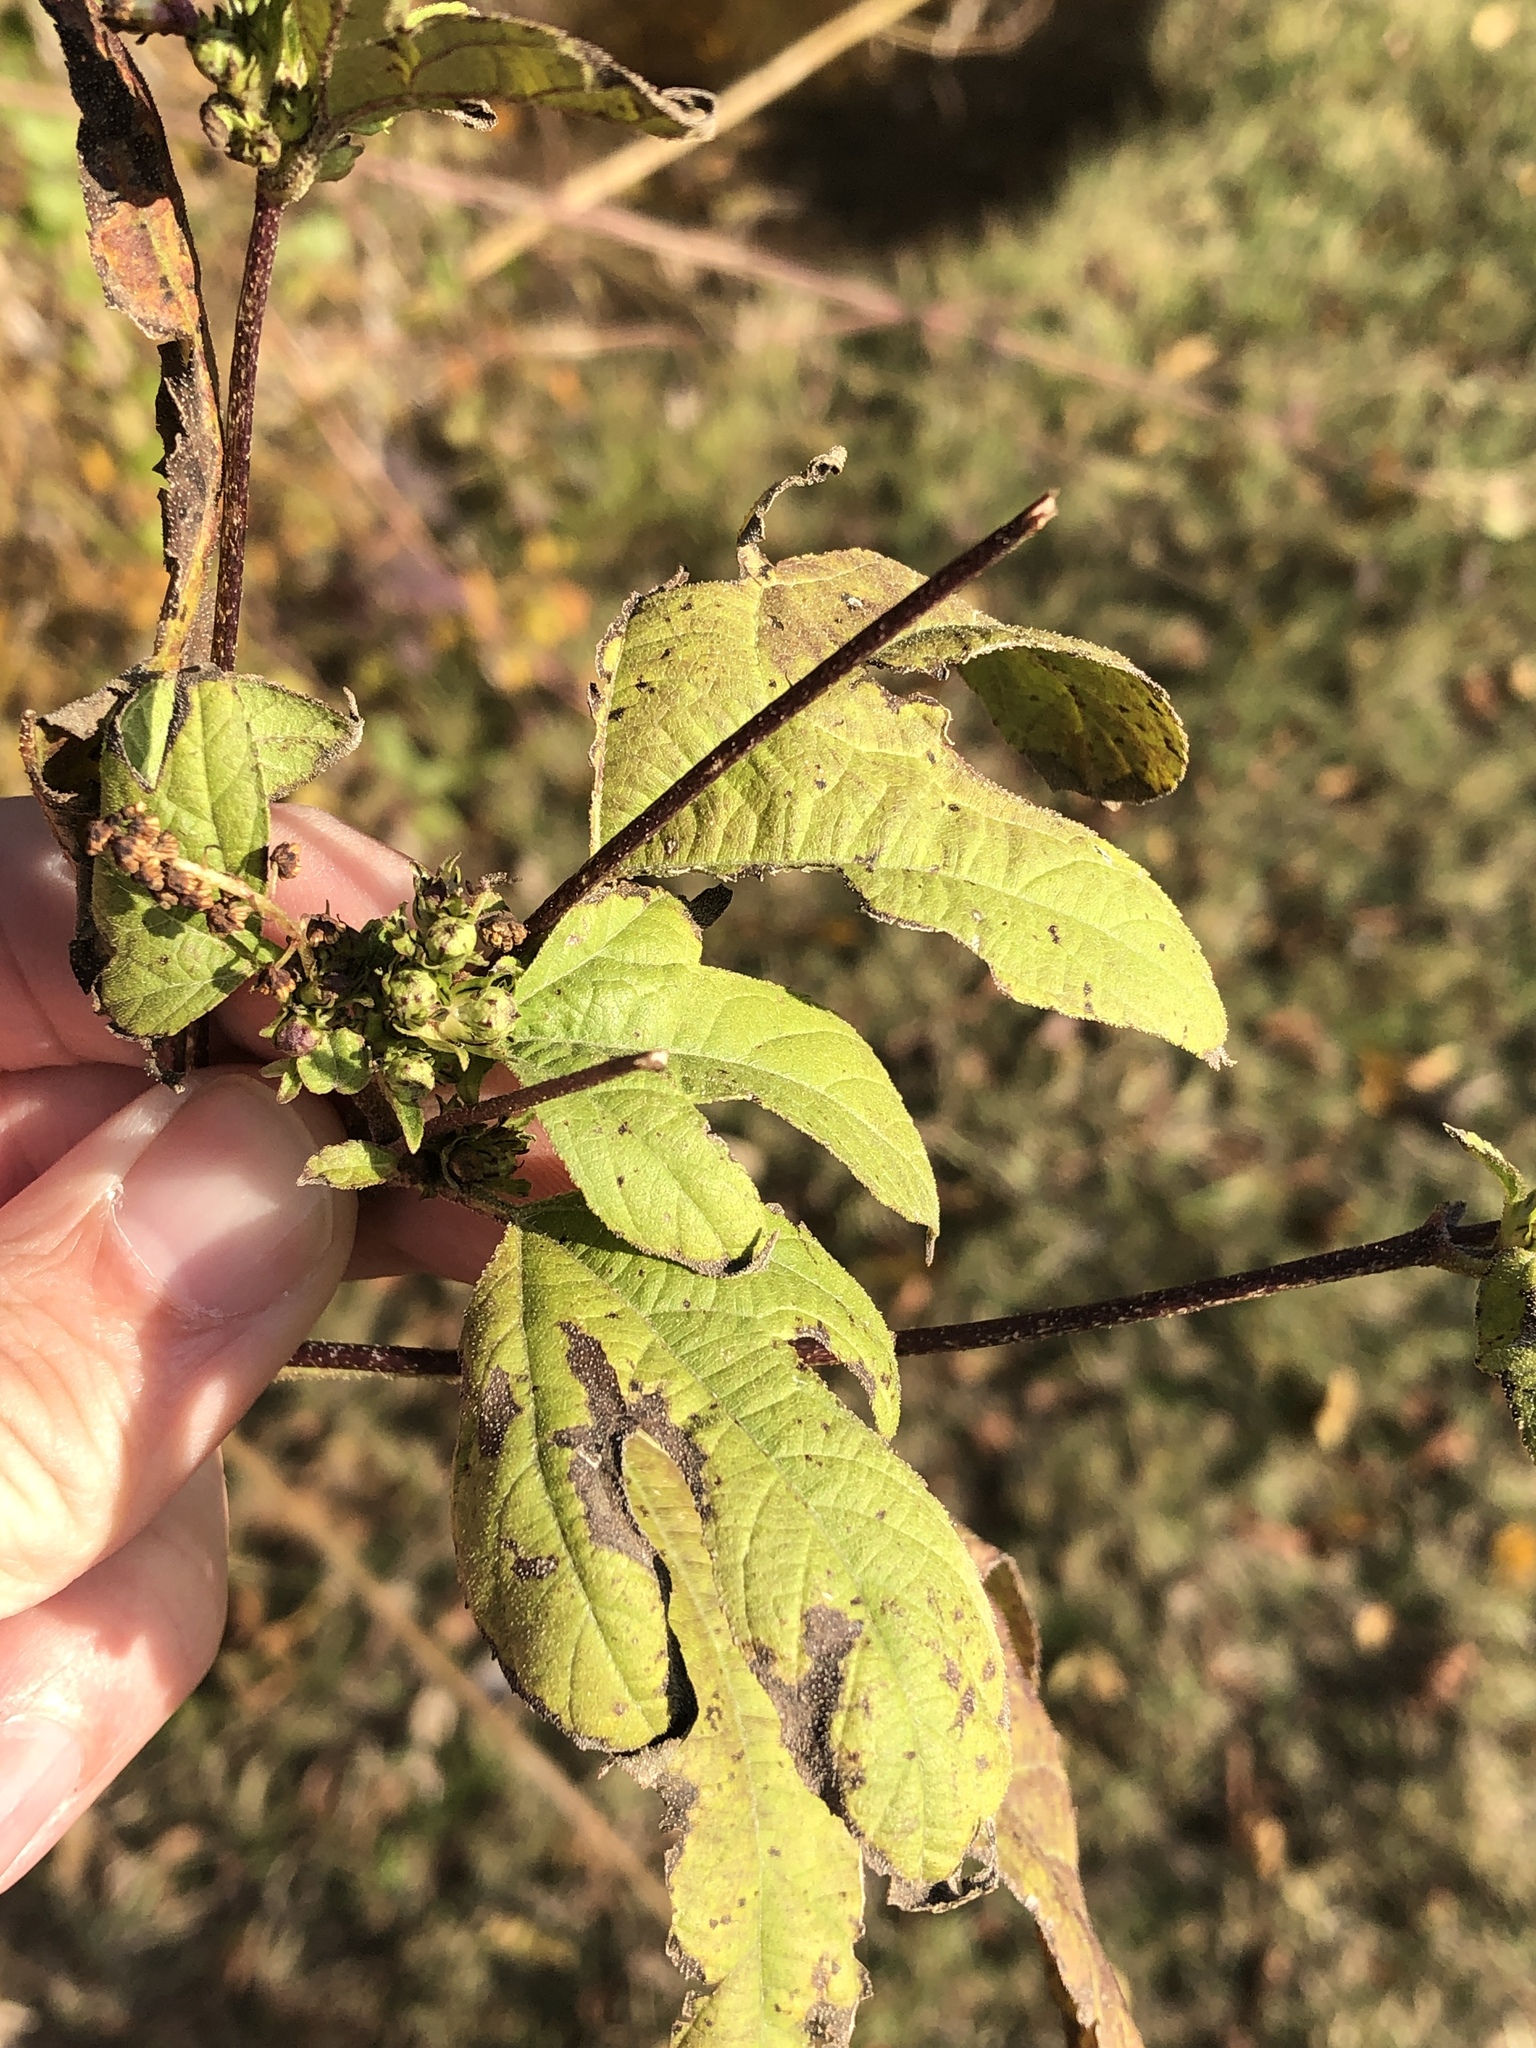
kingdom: Plantae
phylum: Tracheophyta
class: Magnoliopsida
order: Asterales
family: Asteraceae
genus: Ambrosia
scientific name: Ambrosia trifida
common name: Giant ragweed
